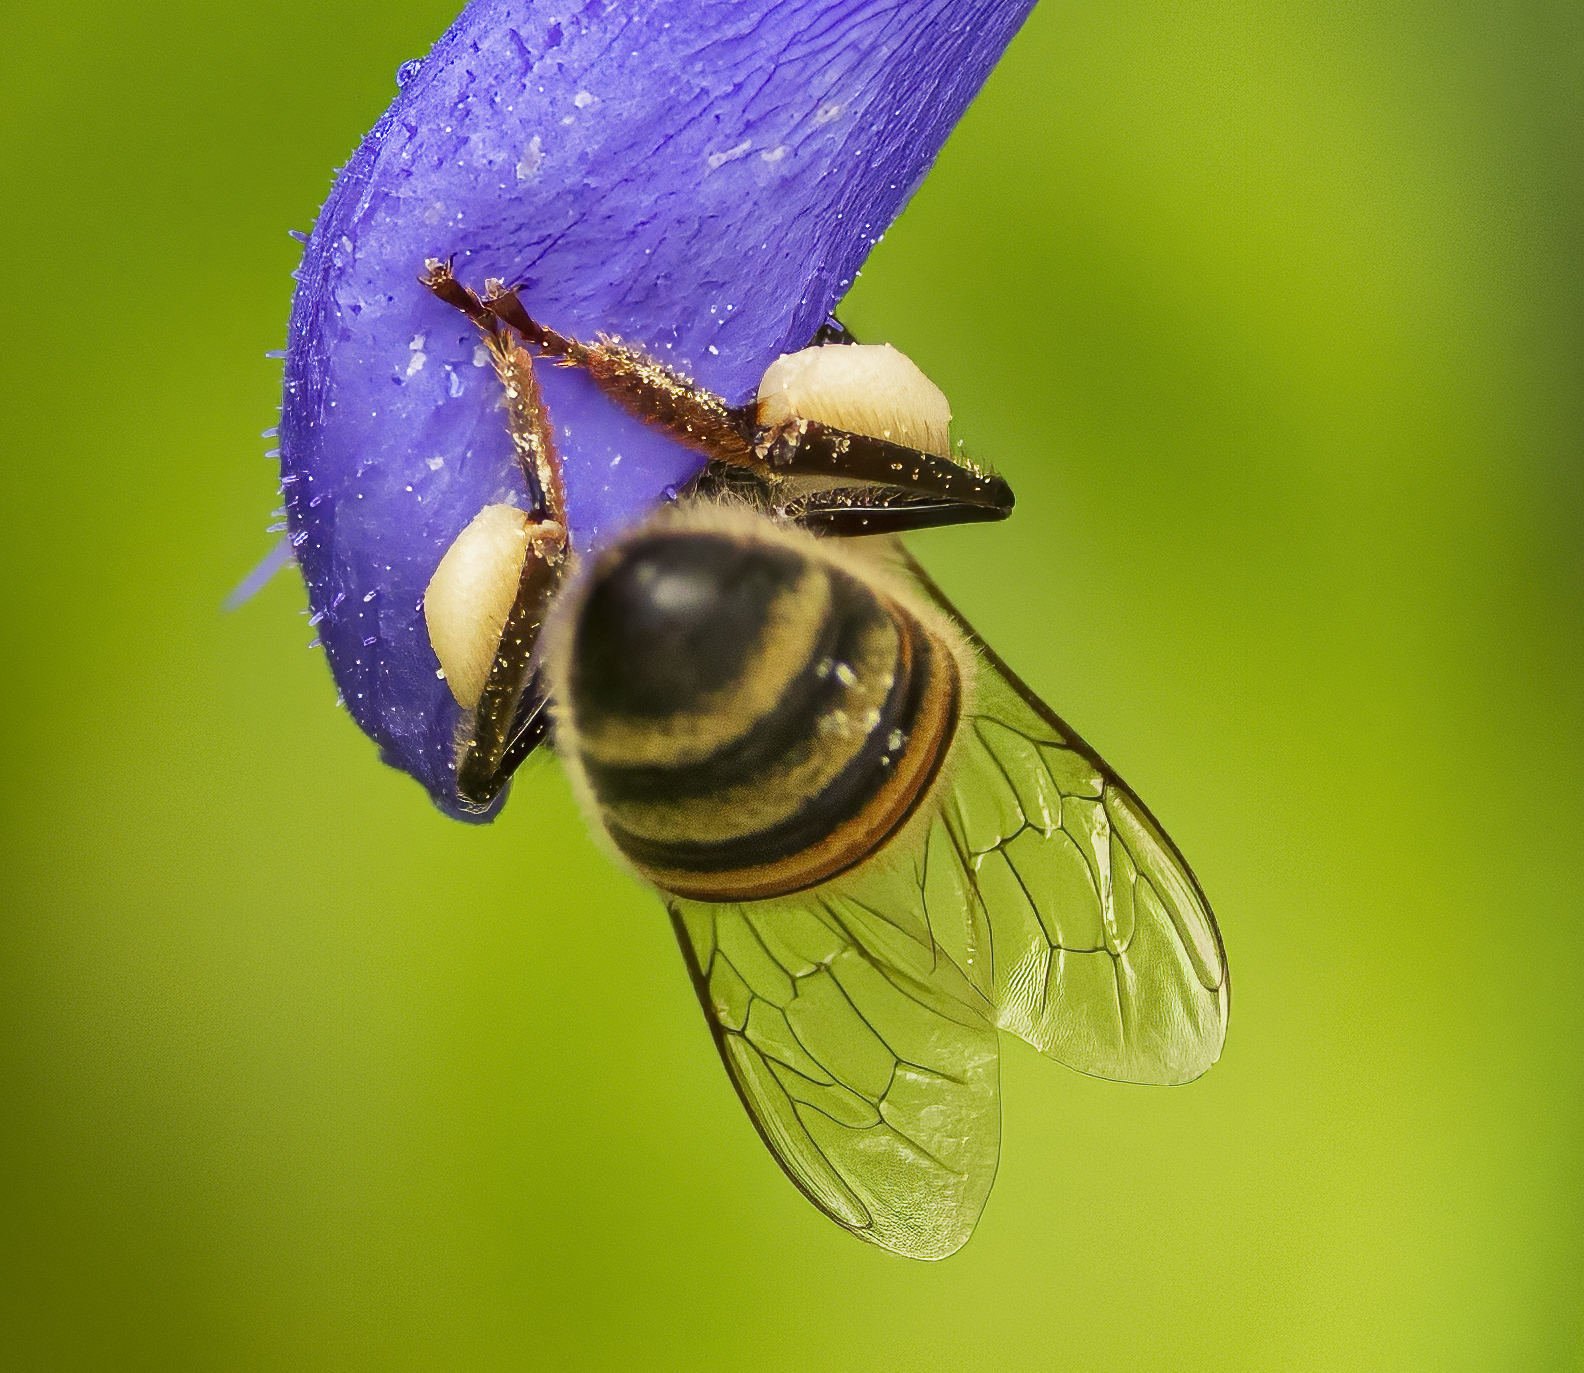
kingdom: Animalia
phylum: Arthropoda
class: Insecta
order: Hymenoptera
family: Apidae
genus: Apis
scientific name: Apis mellifera
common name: Honey bee
